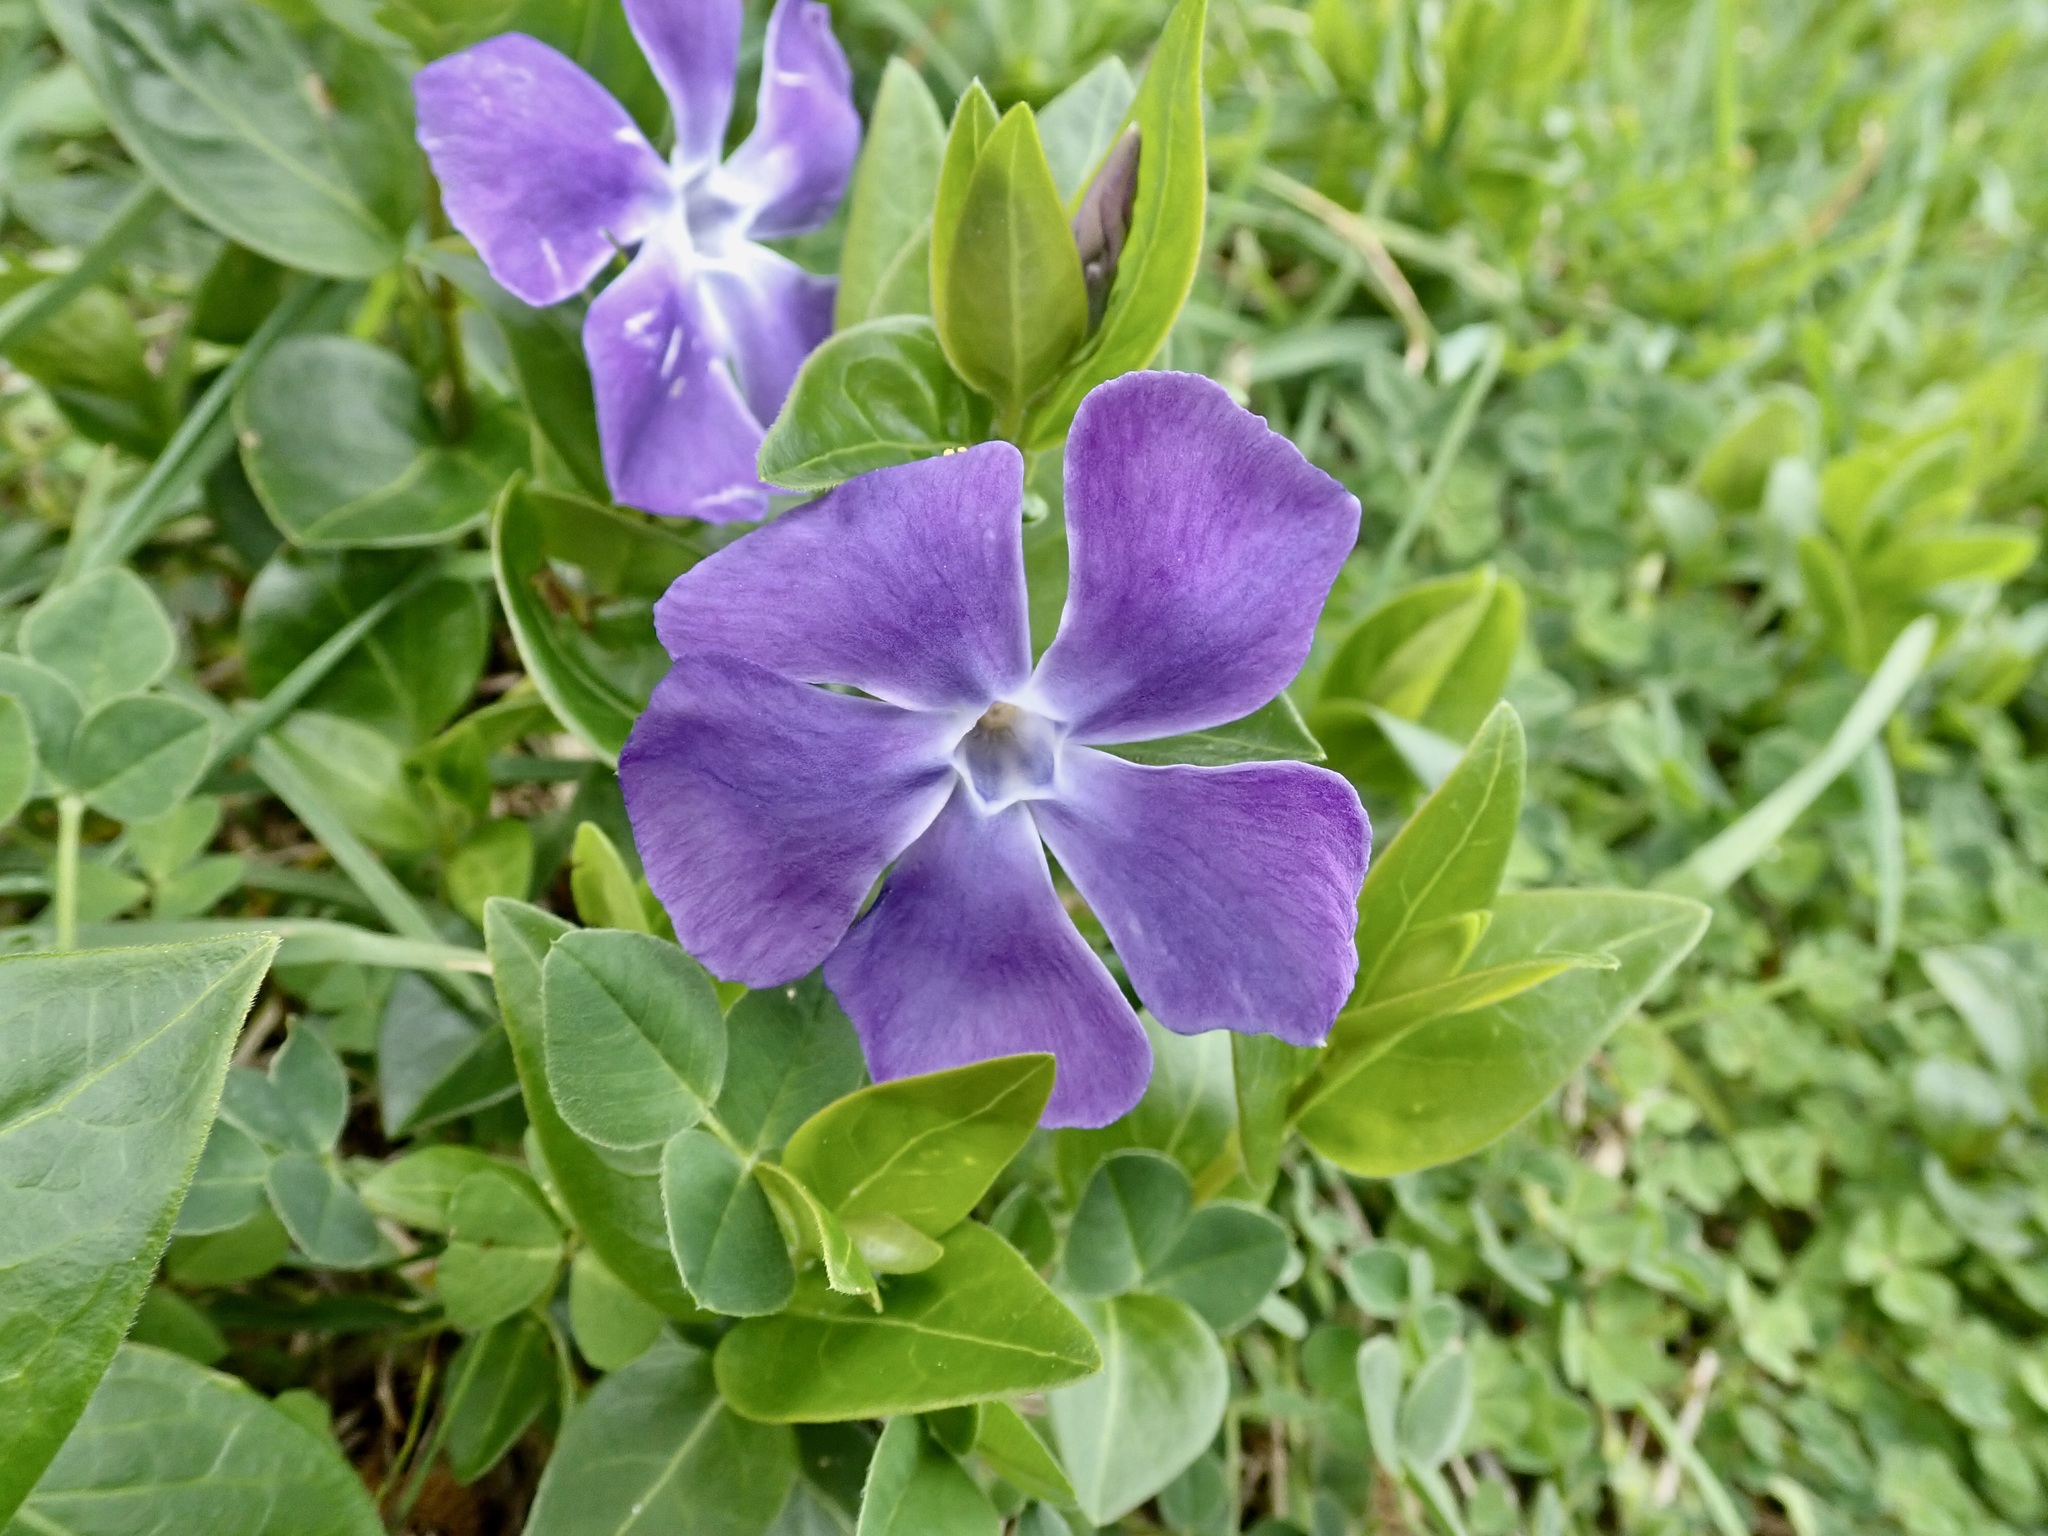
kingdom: Plantae
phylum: Tracheophyta
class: Magnoliopsida
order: Gentianales
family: Apocynaceae
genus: Vinca
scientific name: Vinca major
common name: Greater periwinkle
